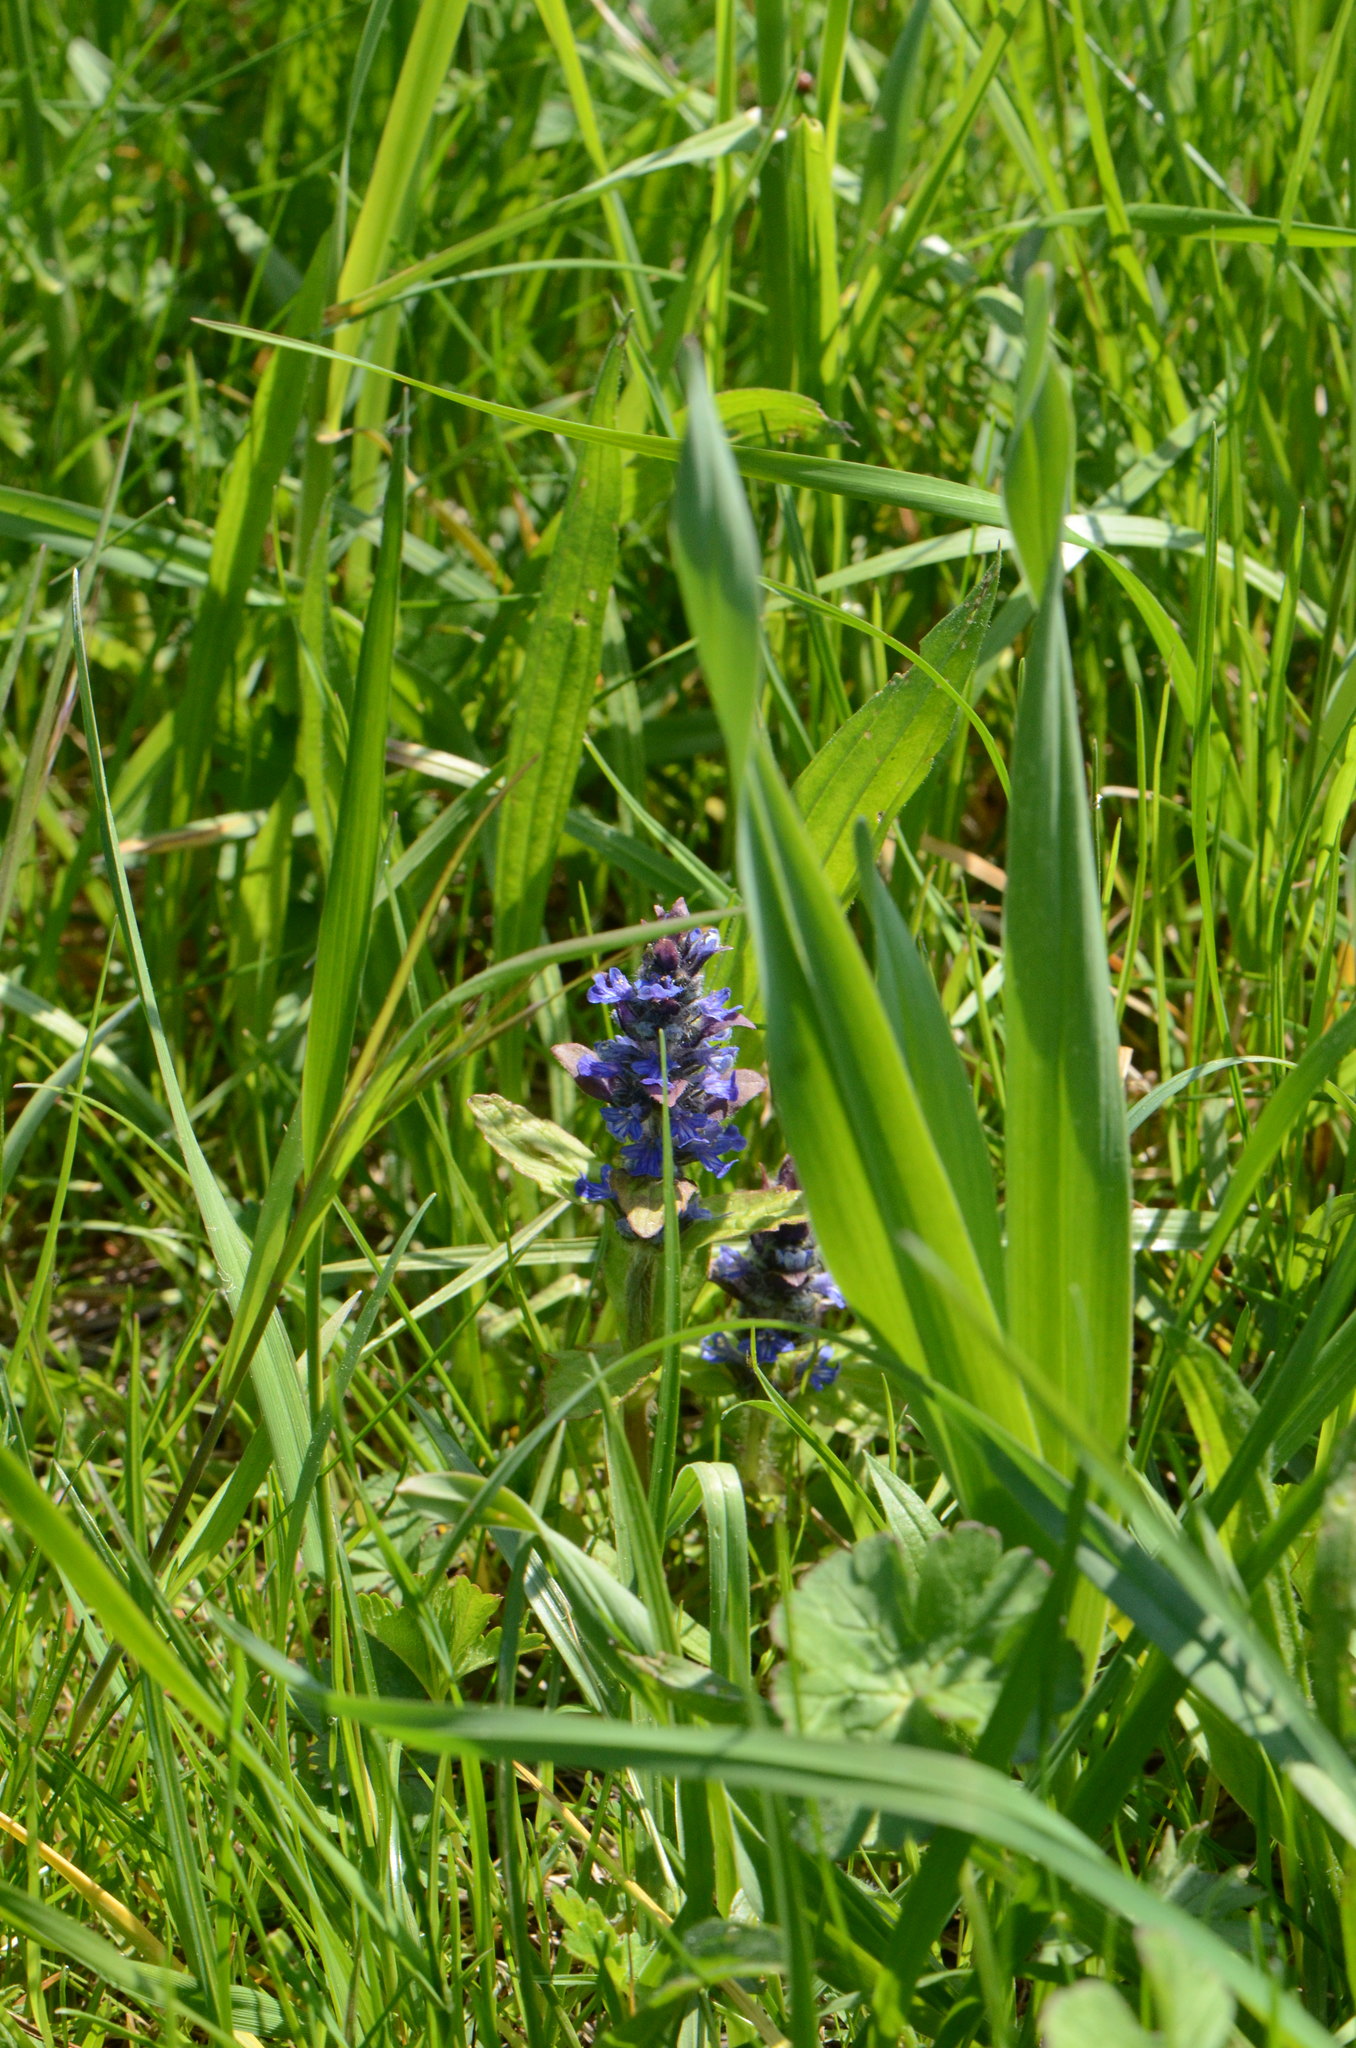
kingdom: Plantae
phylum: Tracheophyta
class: Magnoliopsida
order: Lamiales
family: Lamiaceae
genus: Ajuga
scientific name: Ajuga reptans
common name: Bugle
